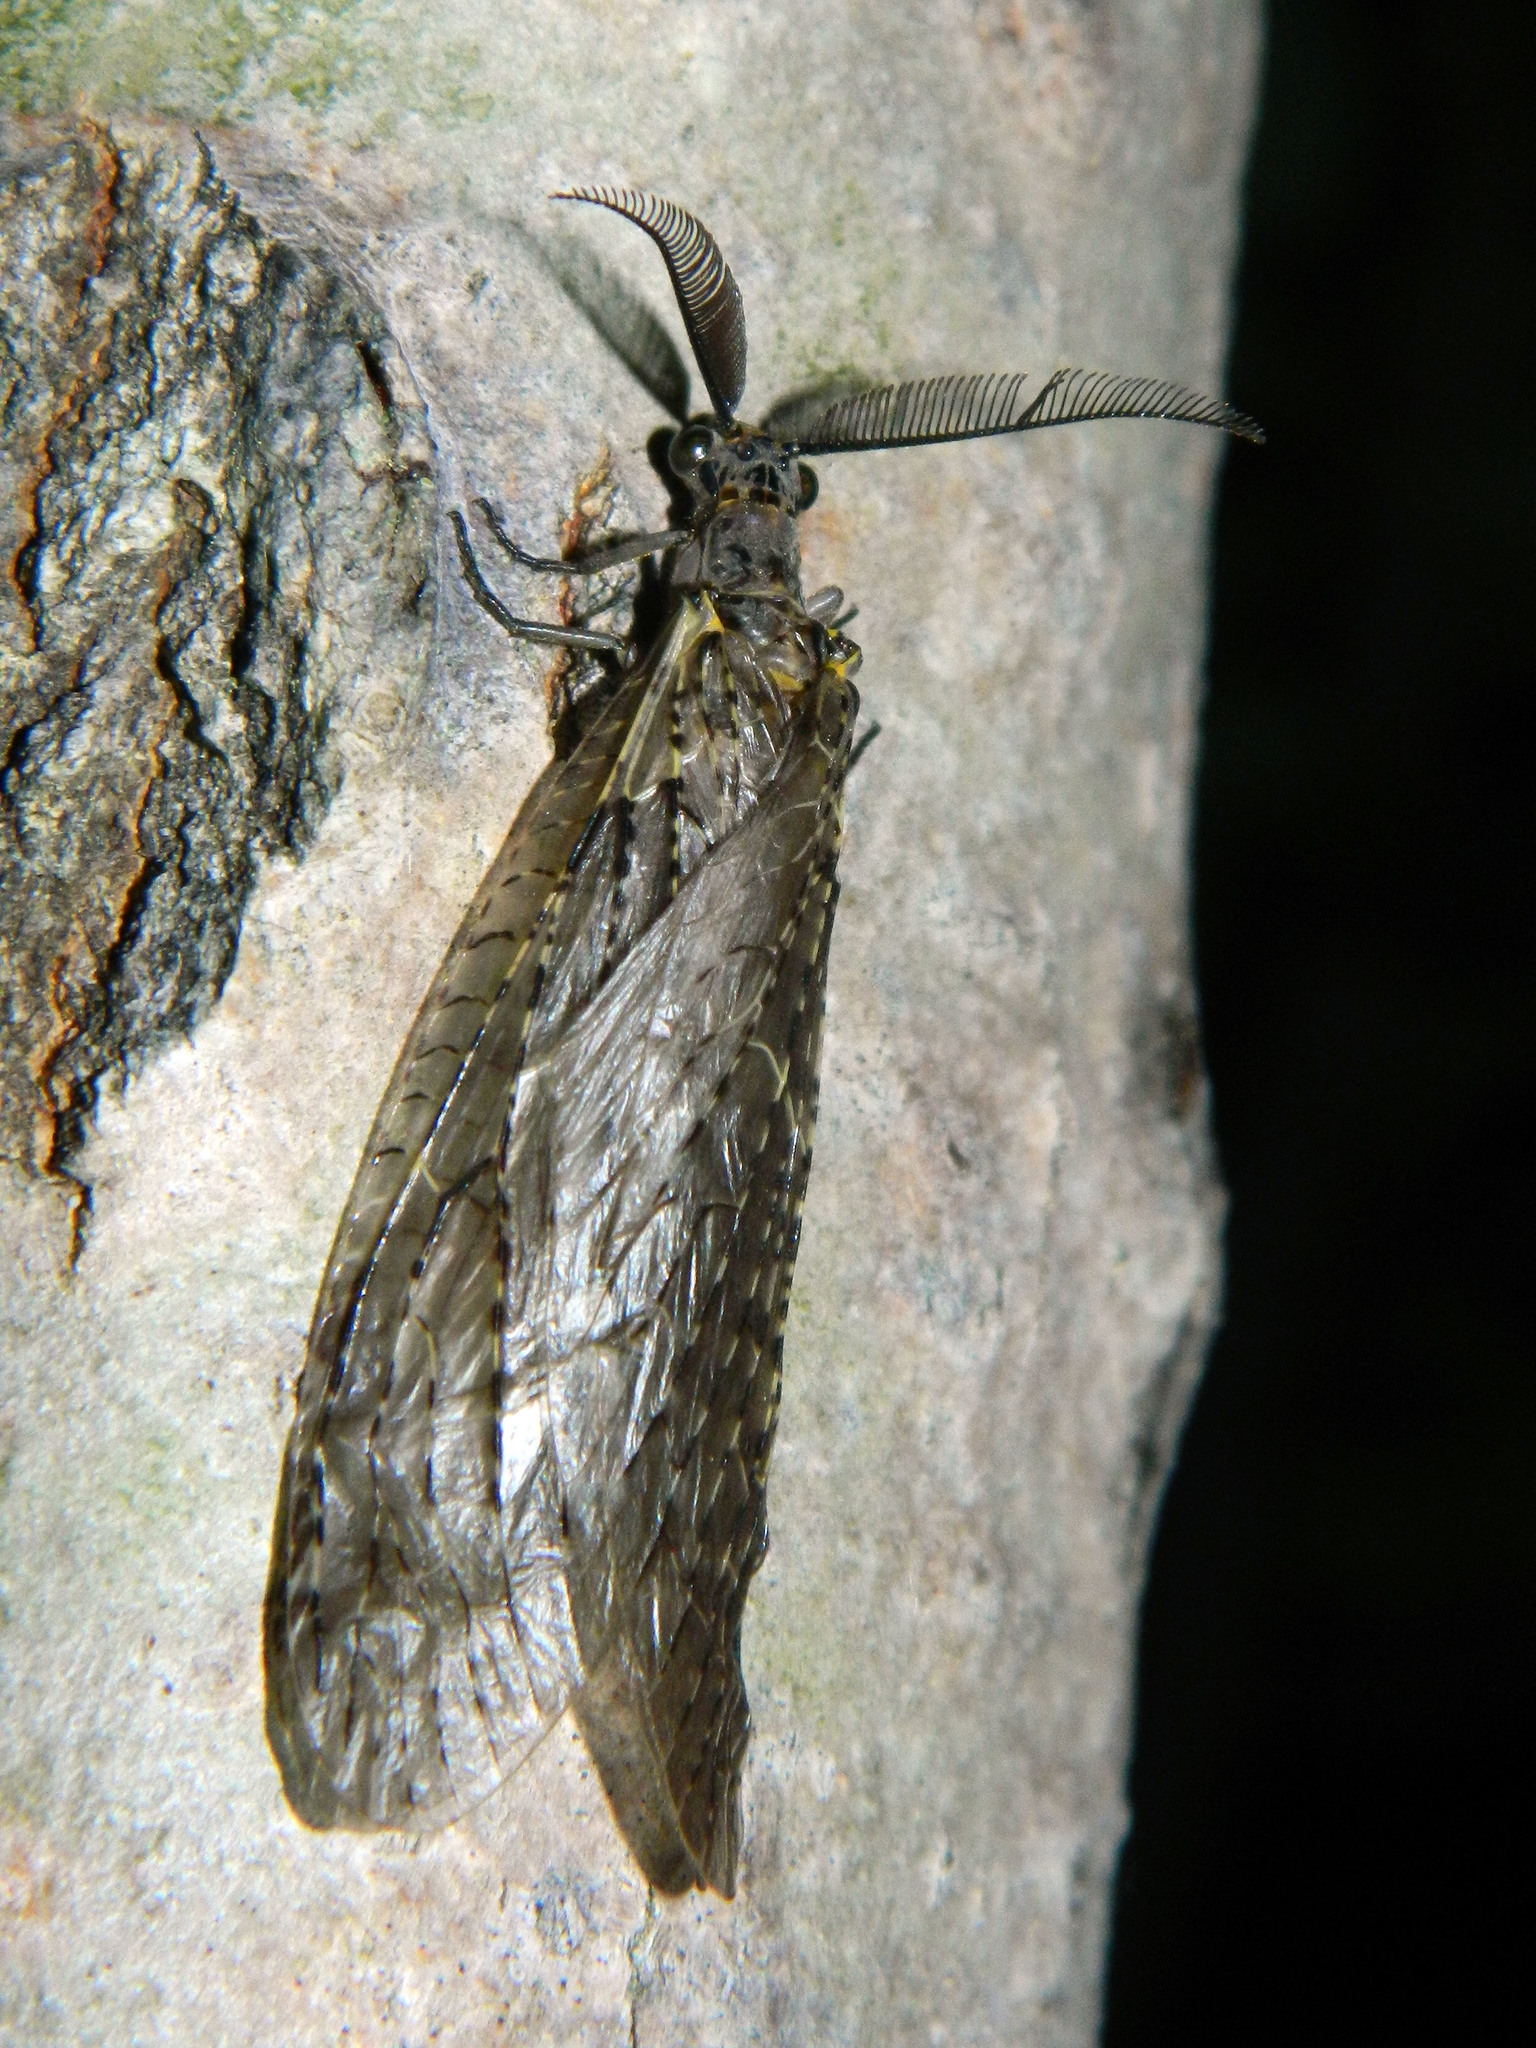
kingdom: Animalia
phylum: Arthropoda
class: Insecta
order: Megaloptera
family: Corydalidae
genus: Chauliodes
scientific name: Chauliodes rastricornis
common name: Spring fishfly
